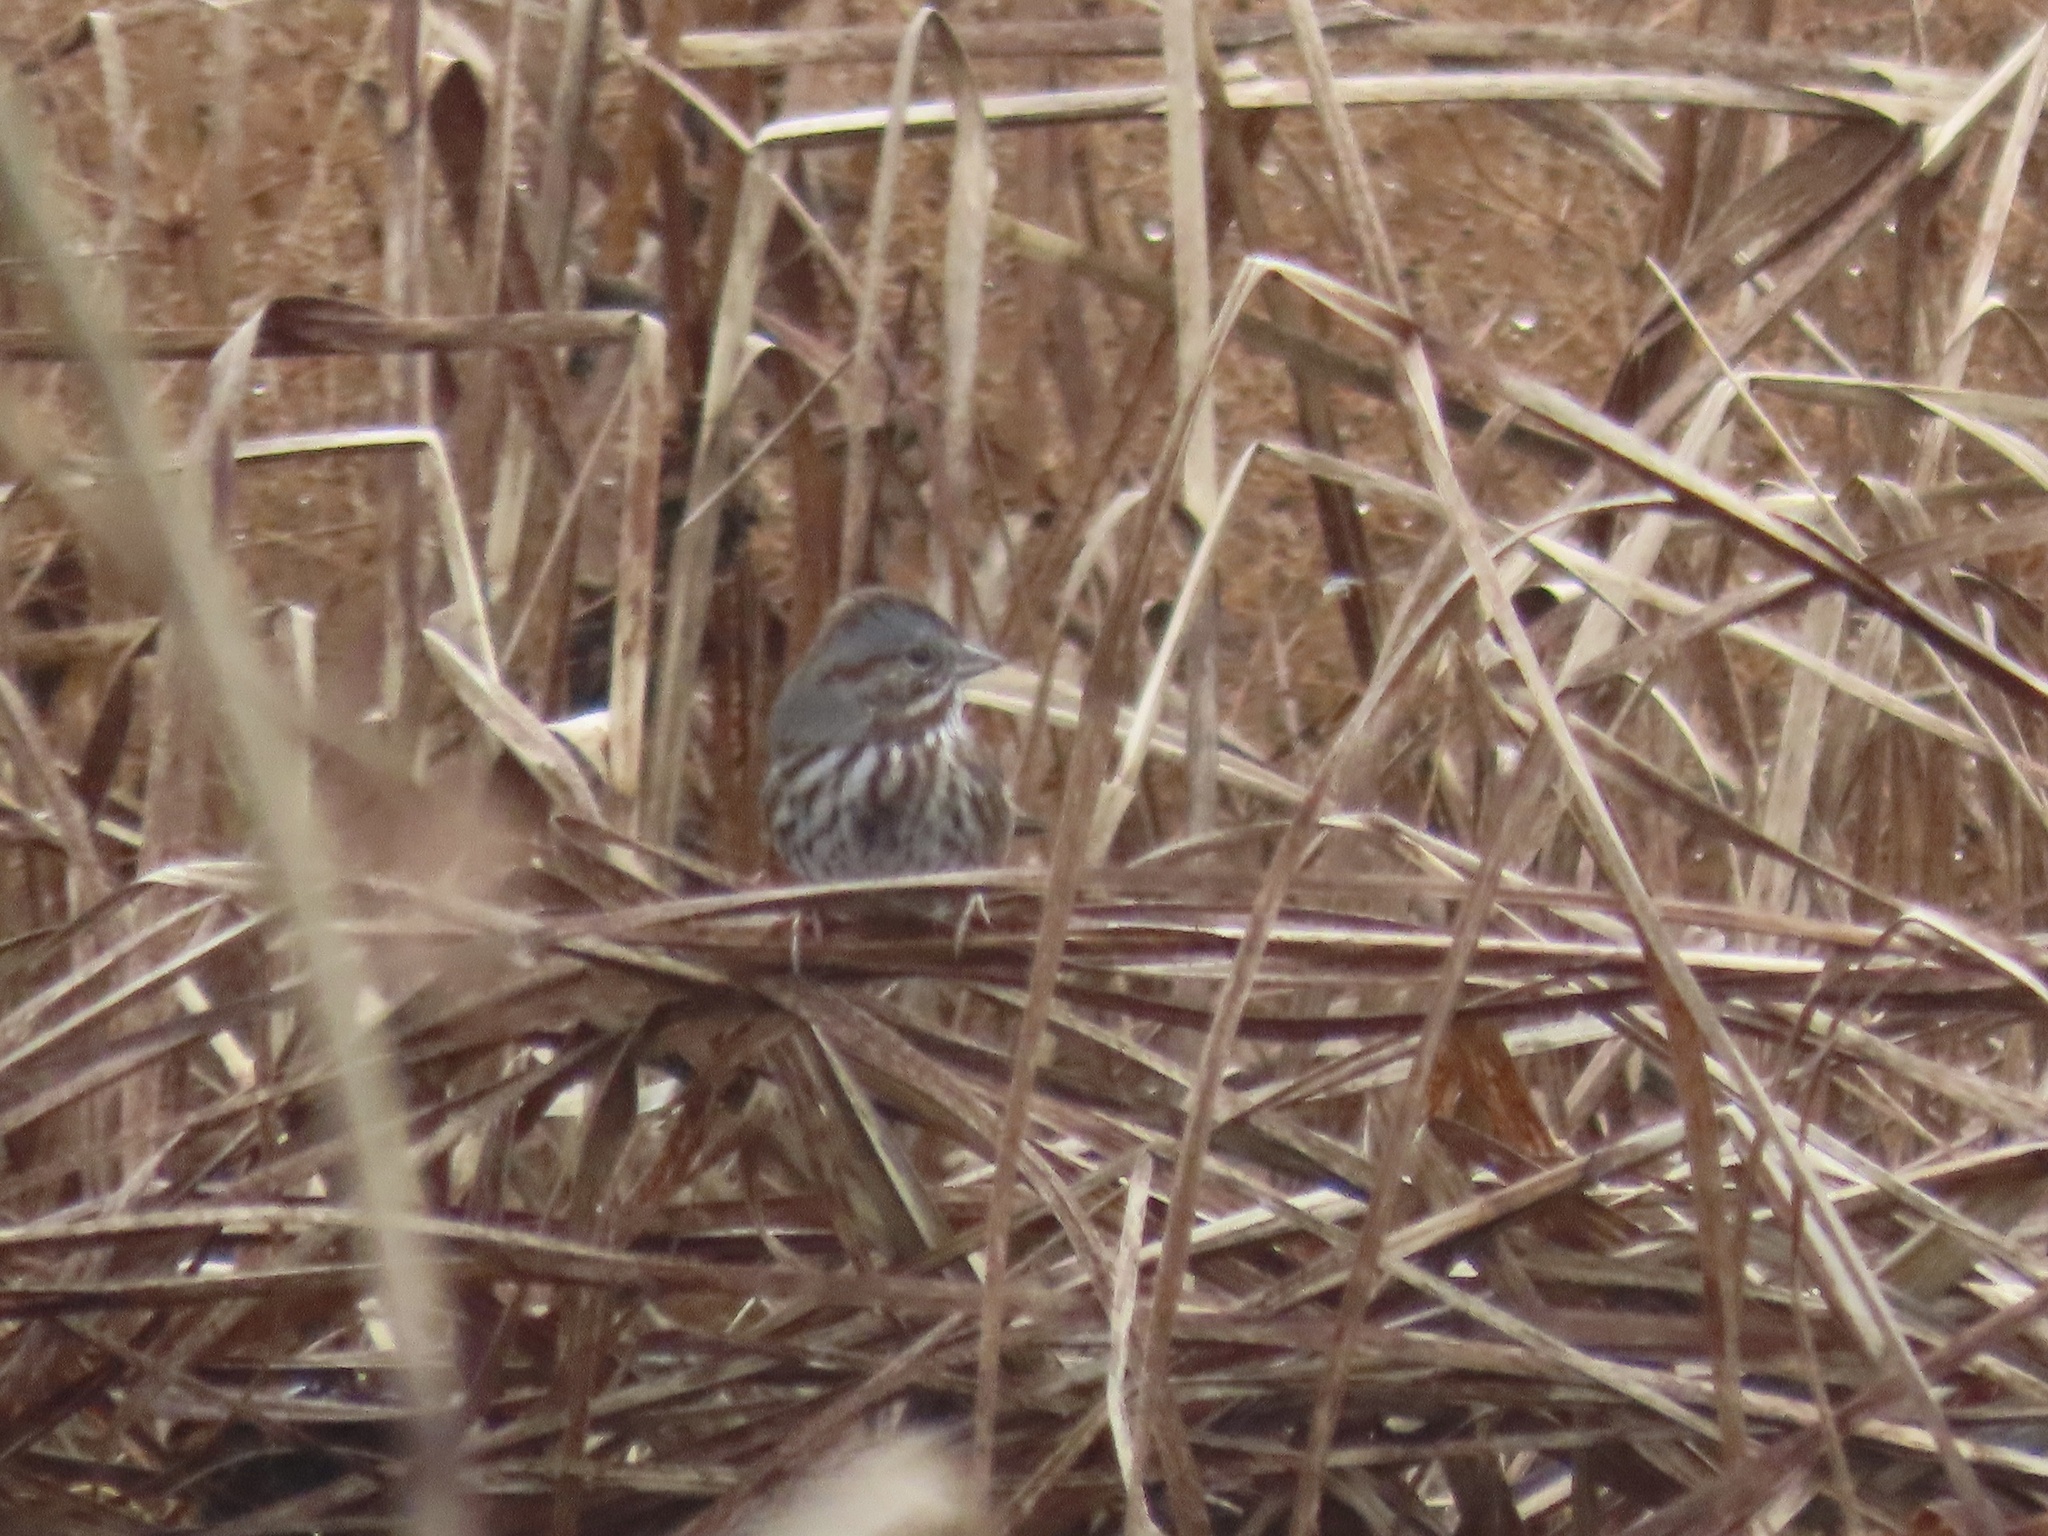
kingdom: Animalia
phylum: Chordata
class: Aves
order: Passeriformes
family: Passerellidae
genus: Melospiza
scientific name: Melospiza melodia
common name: Song sparrow
